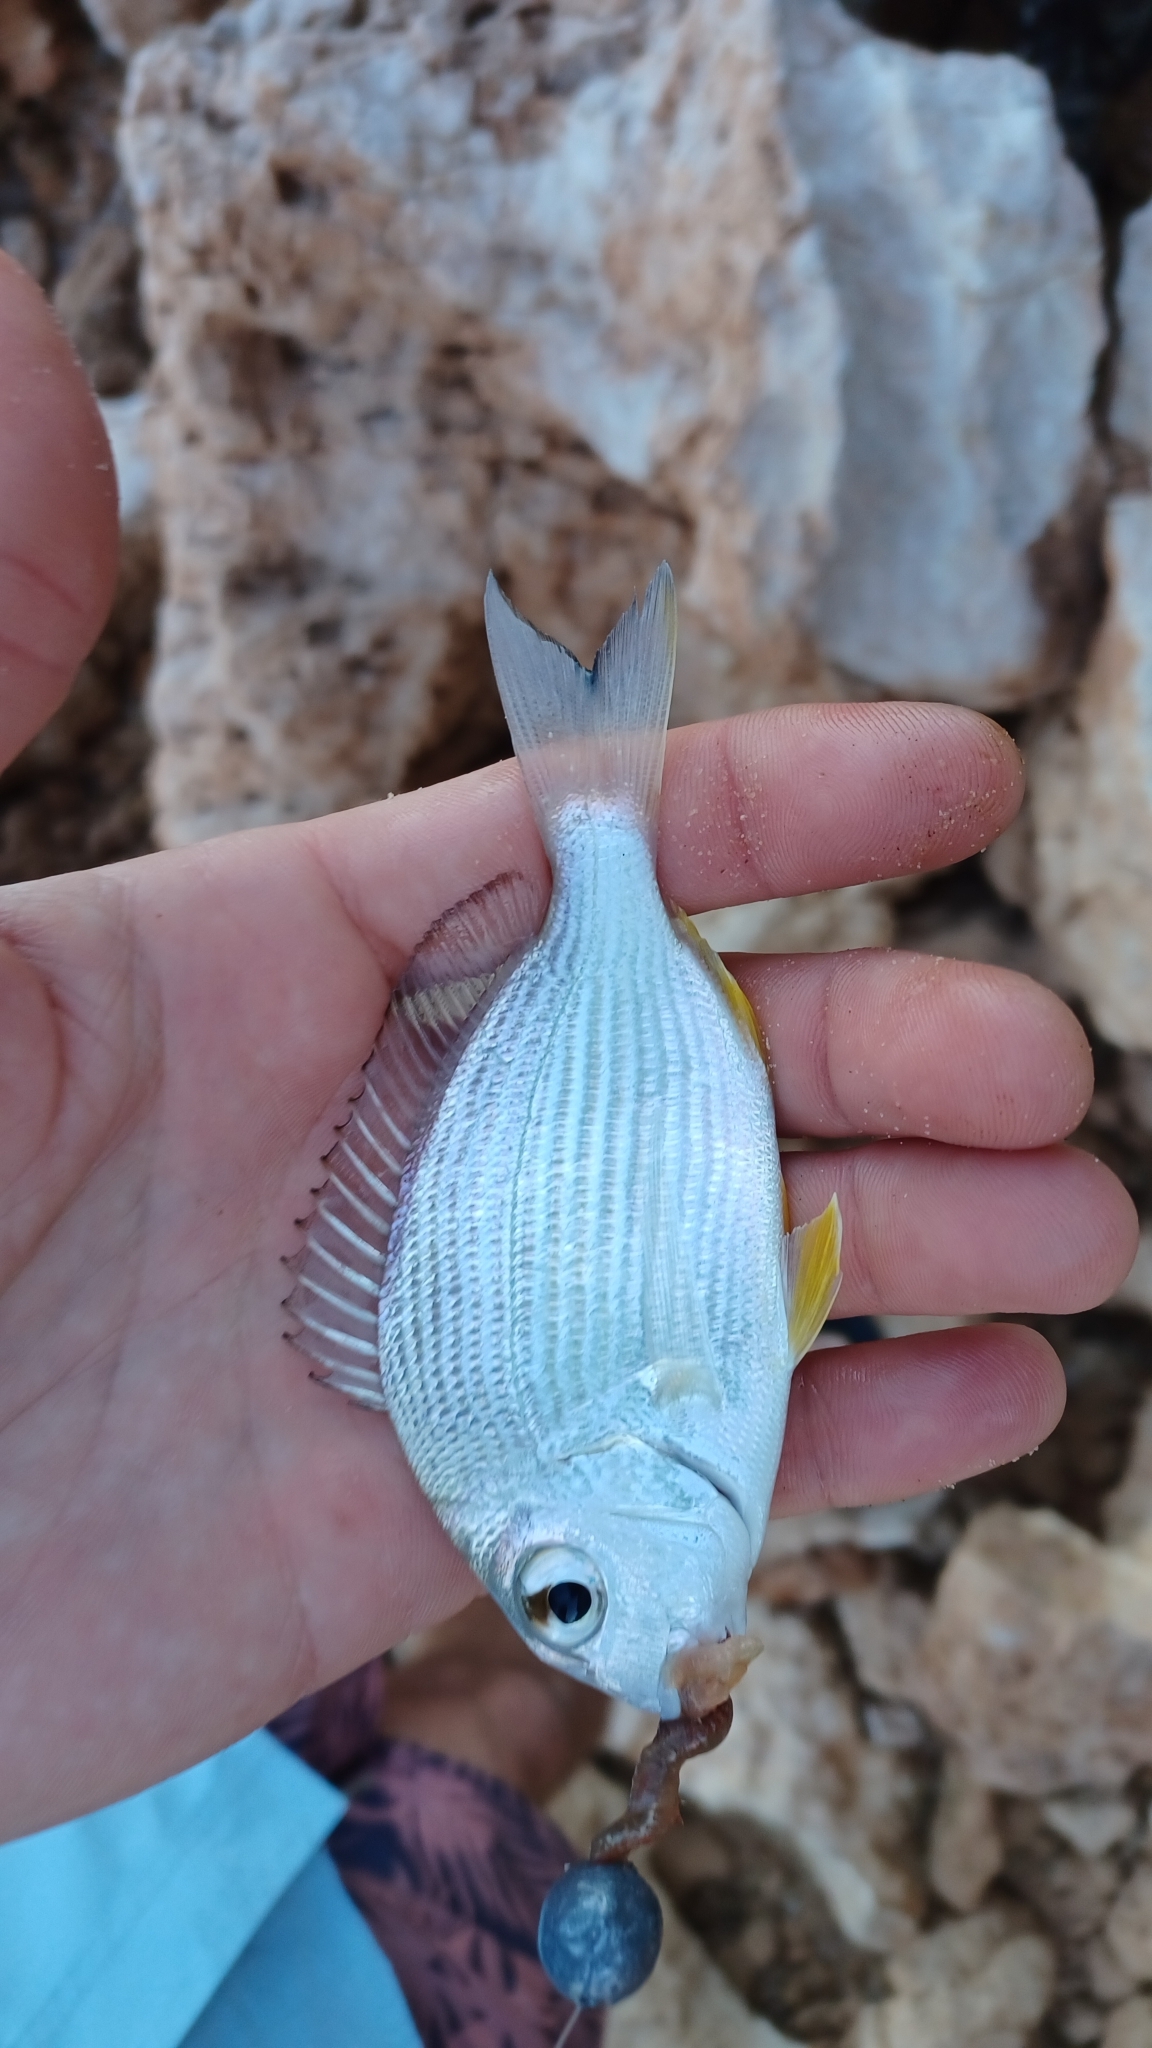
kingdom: Animalia
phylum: Chordata
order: Perciformes
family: Sparidae
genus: Rhabdosargus
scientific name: Rhabdosargus sarba
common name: Goldlined seabream
